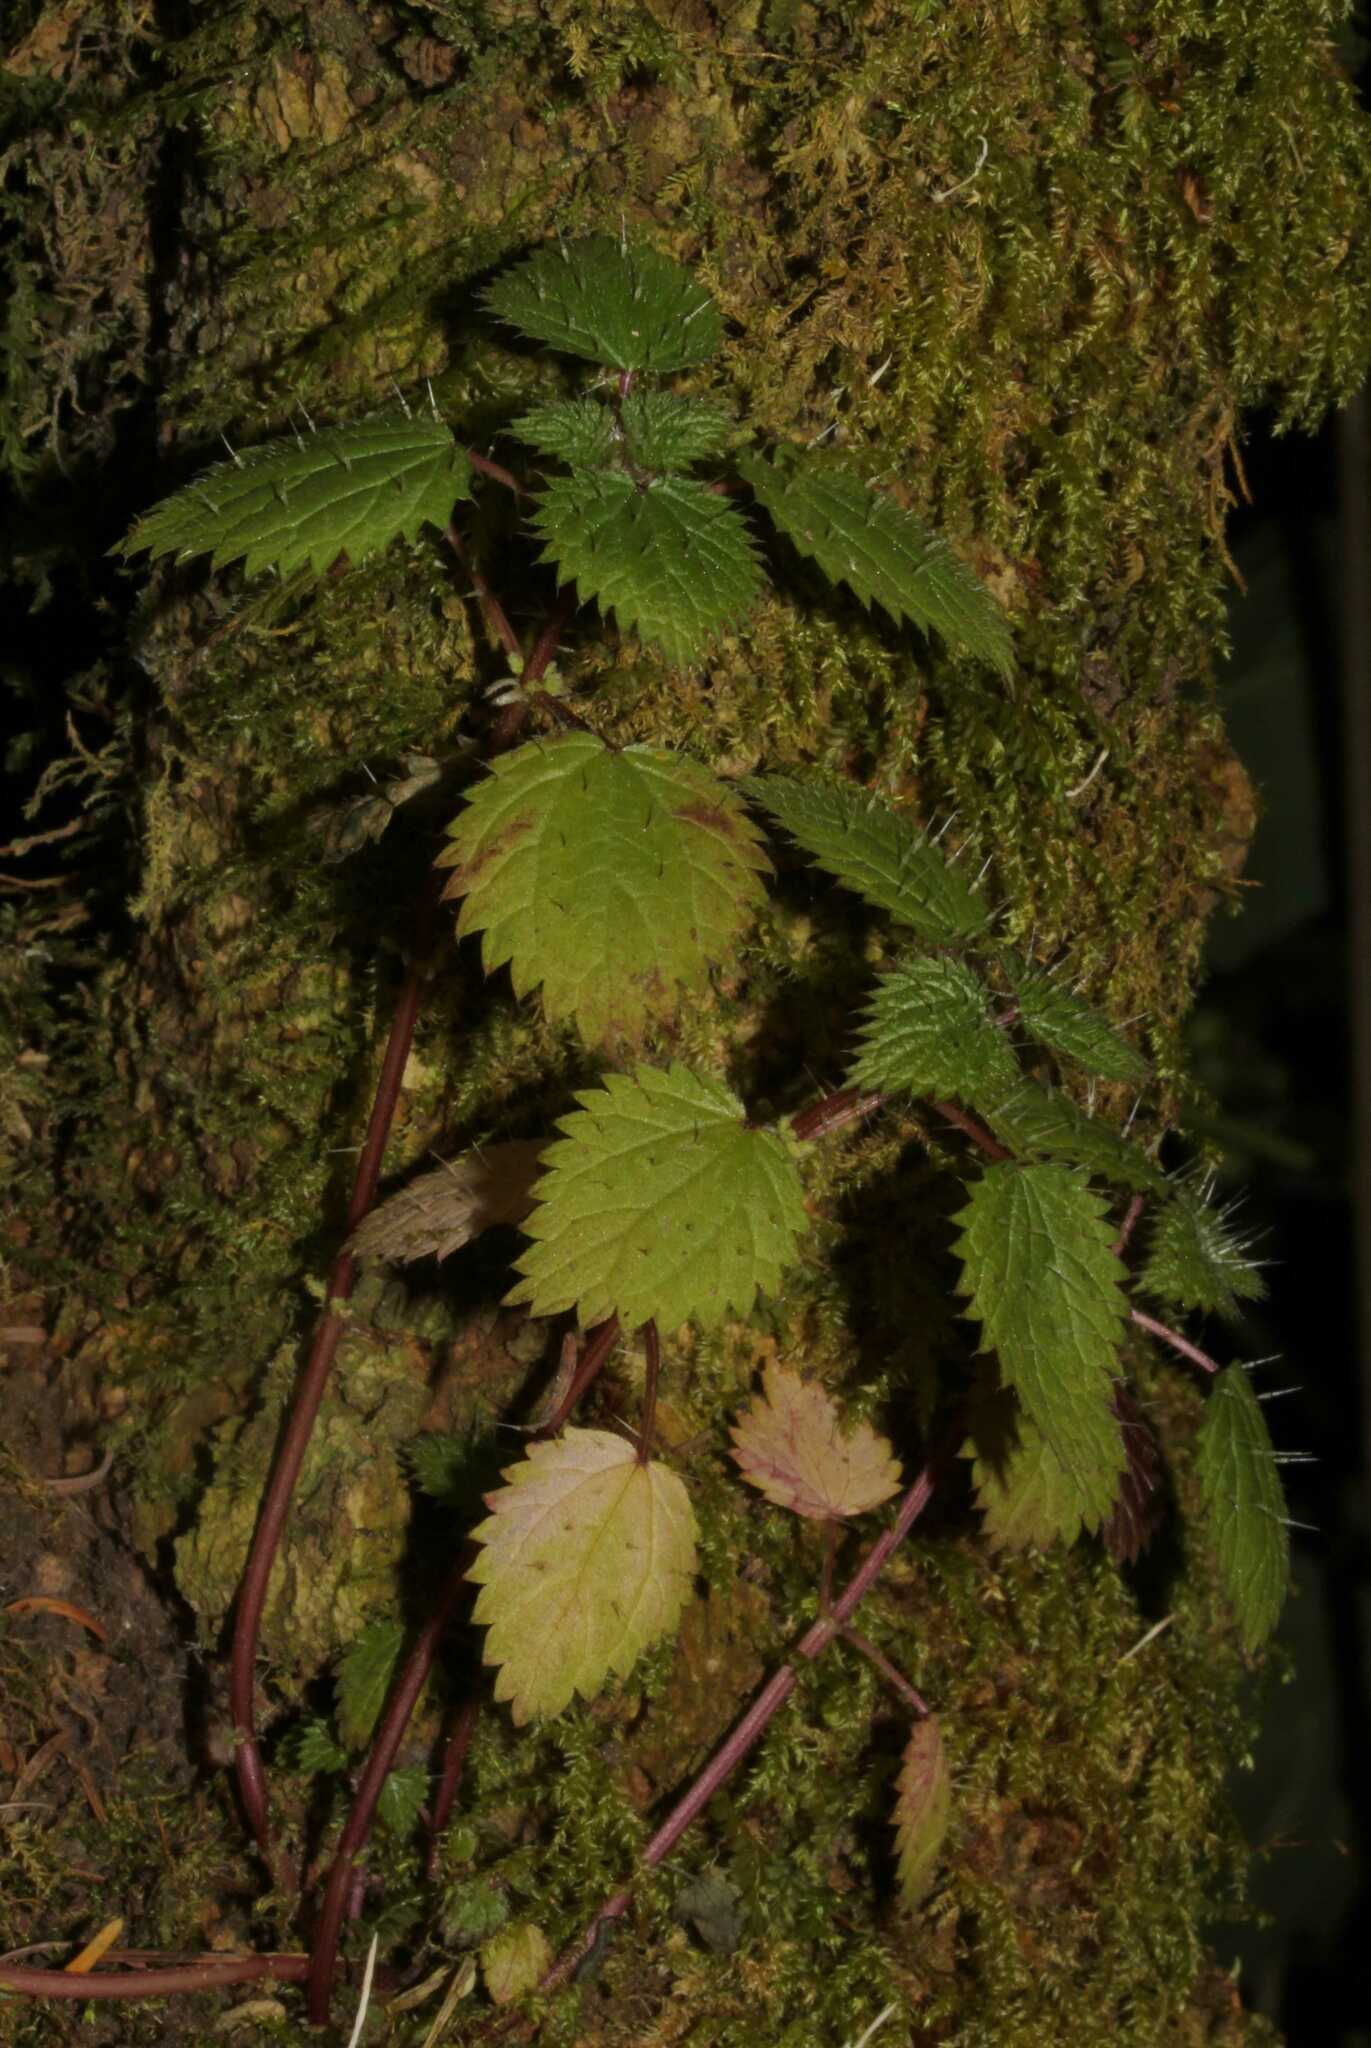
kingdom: Plantae
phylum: Tracheophyta
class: Magnoliopsida
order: Rosales
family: Urticaceae
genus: Urtica
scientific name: Urtica chamaedryoides
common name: Heart-leaf nettle
